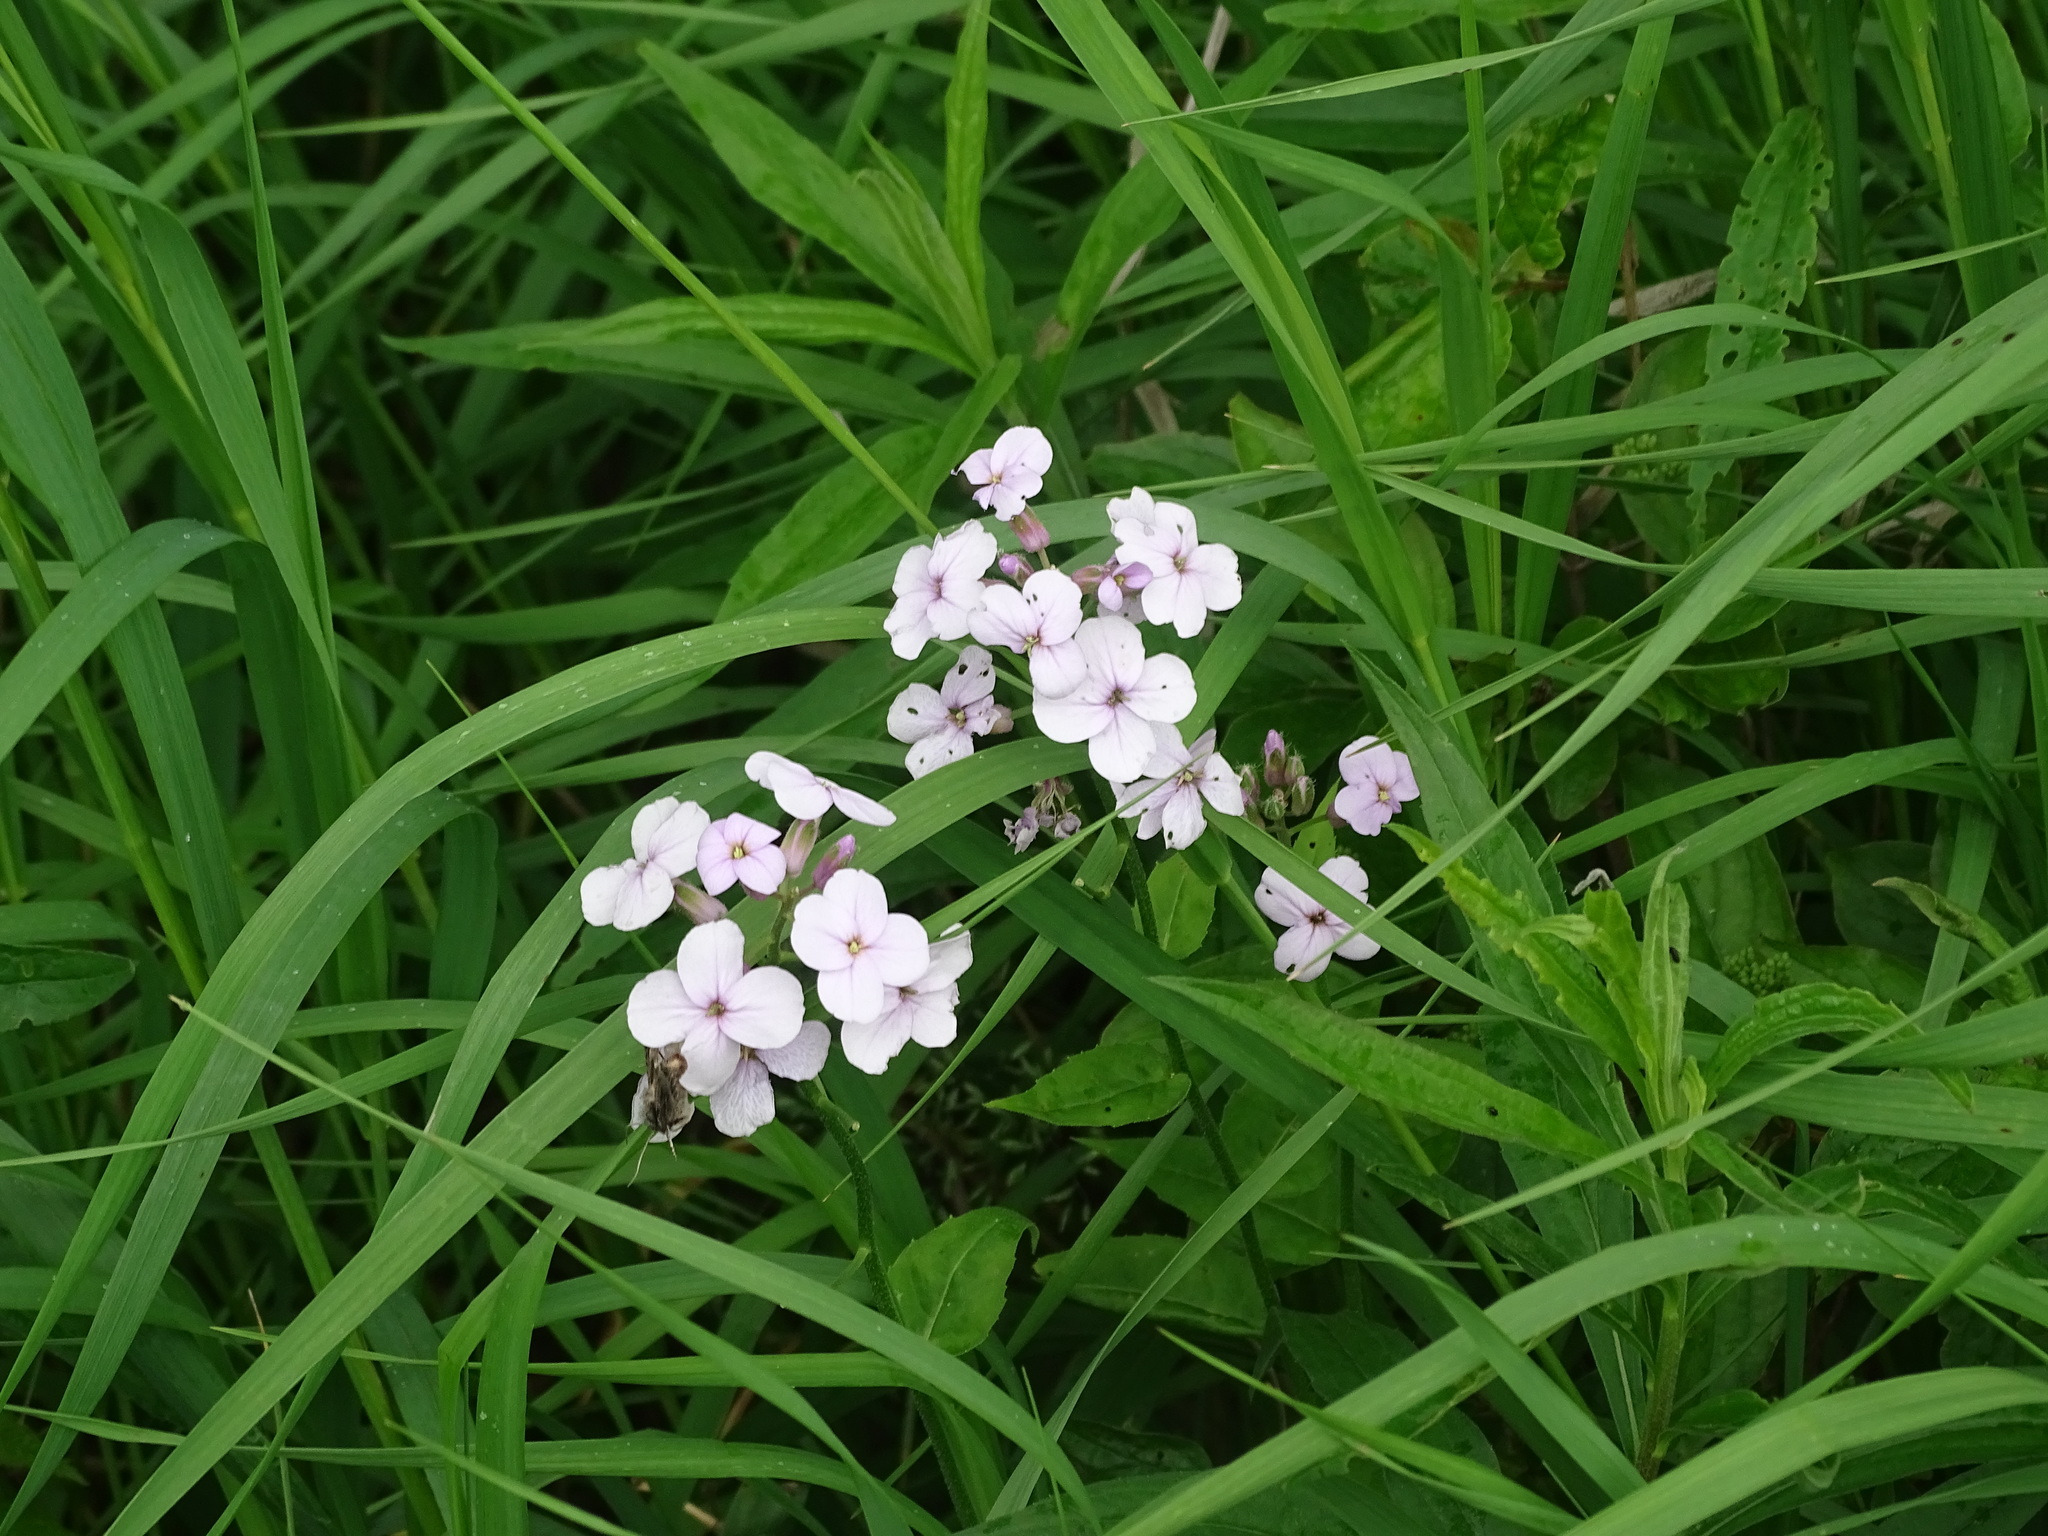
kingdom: Plantae
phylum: Tracheophyta
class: Magnoliopsida
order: Brassicales
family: Brassicaceae
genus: Hesperis
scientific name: Hesperis matronalis
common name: Dame's-violet
